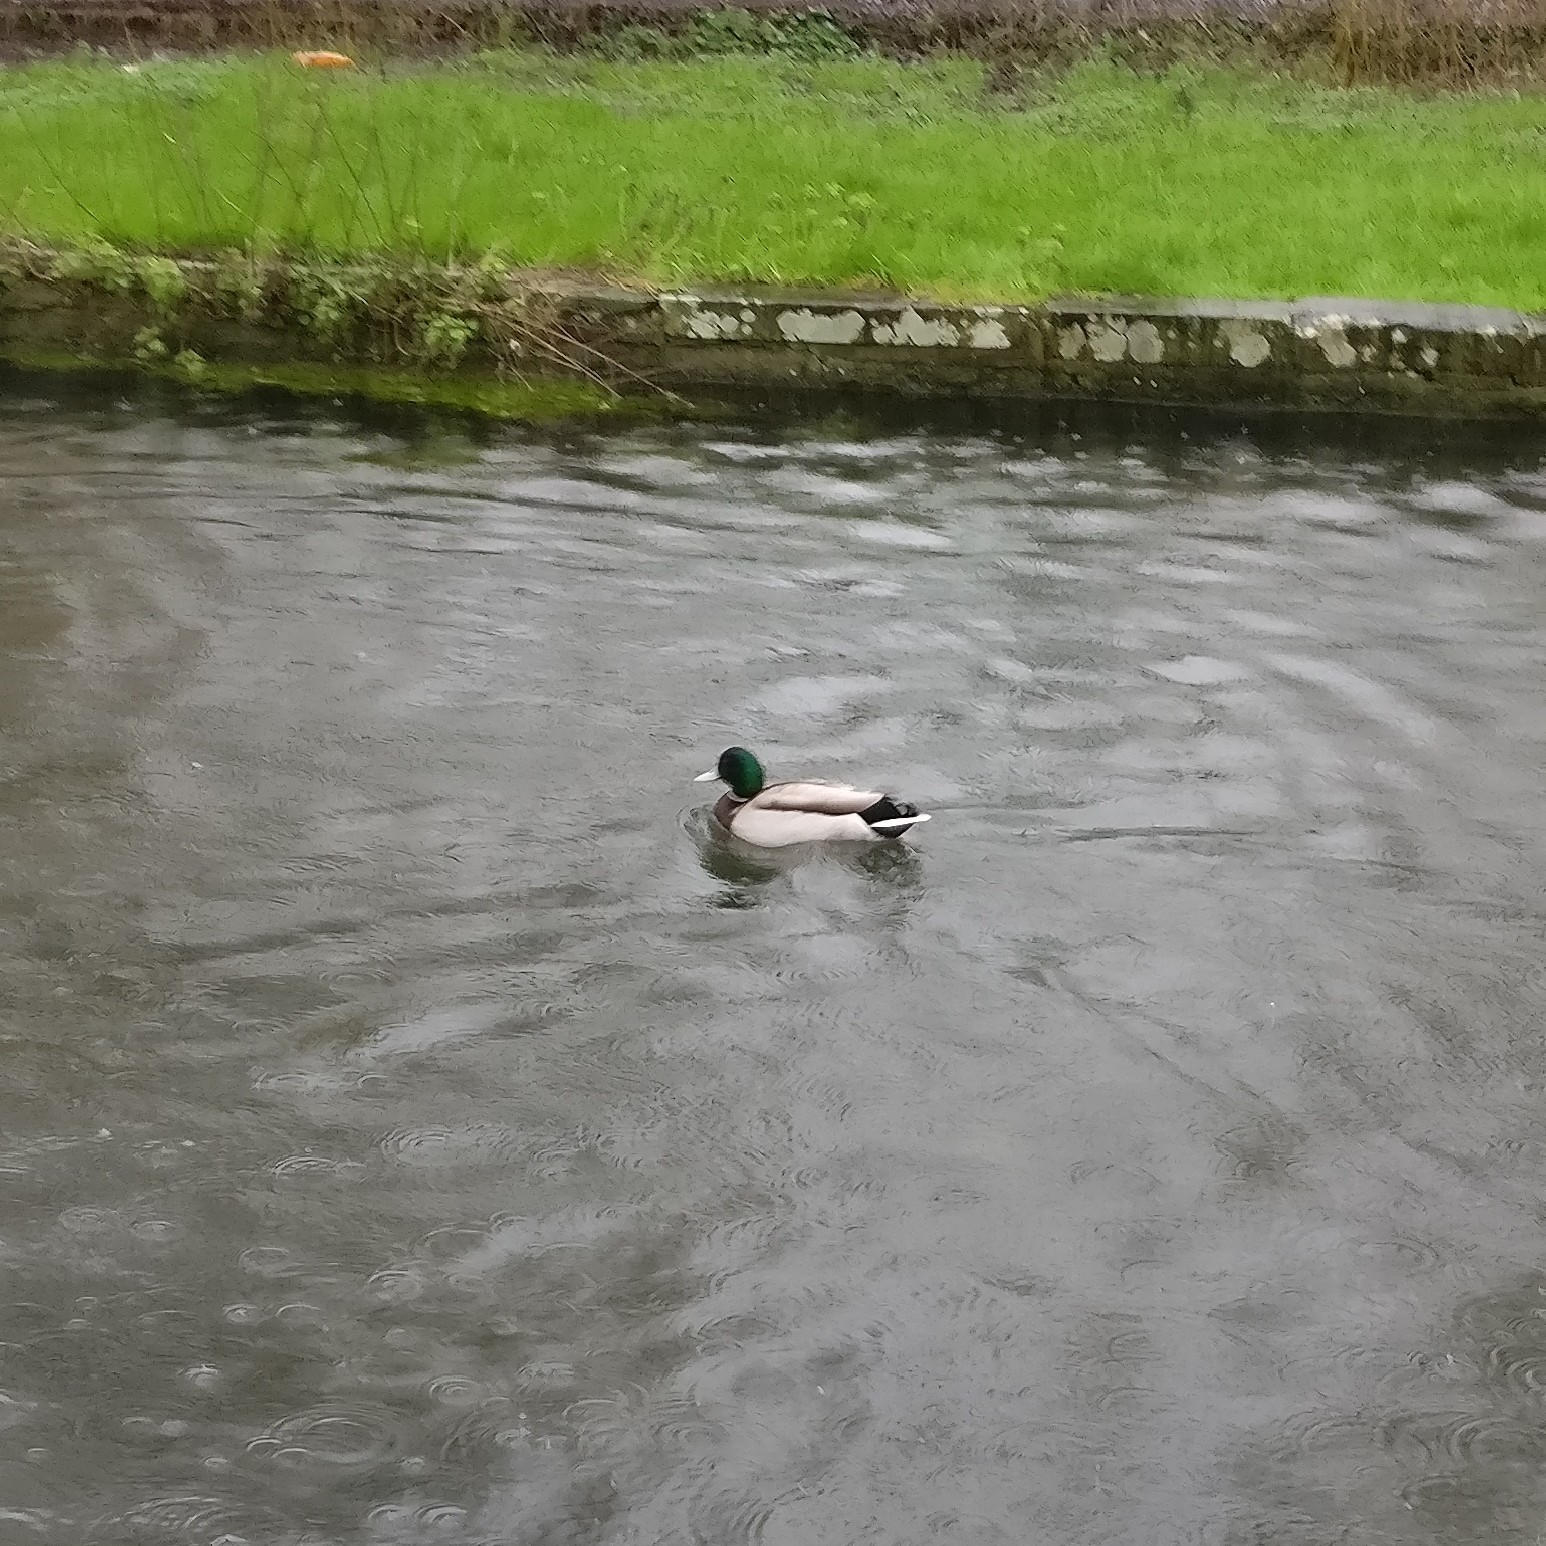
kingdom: Animalia
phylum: Chordata
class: Aves
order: Anseriformes
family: Anatidae
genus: Anas
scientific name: Anas platyrhynchos
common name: Mallard
